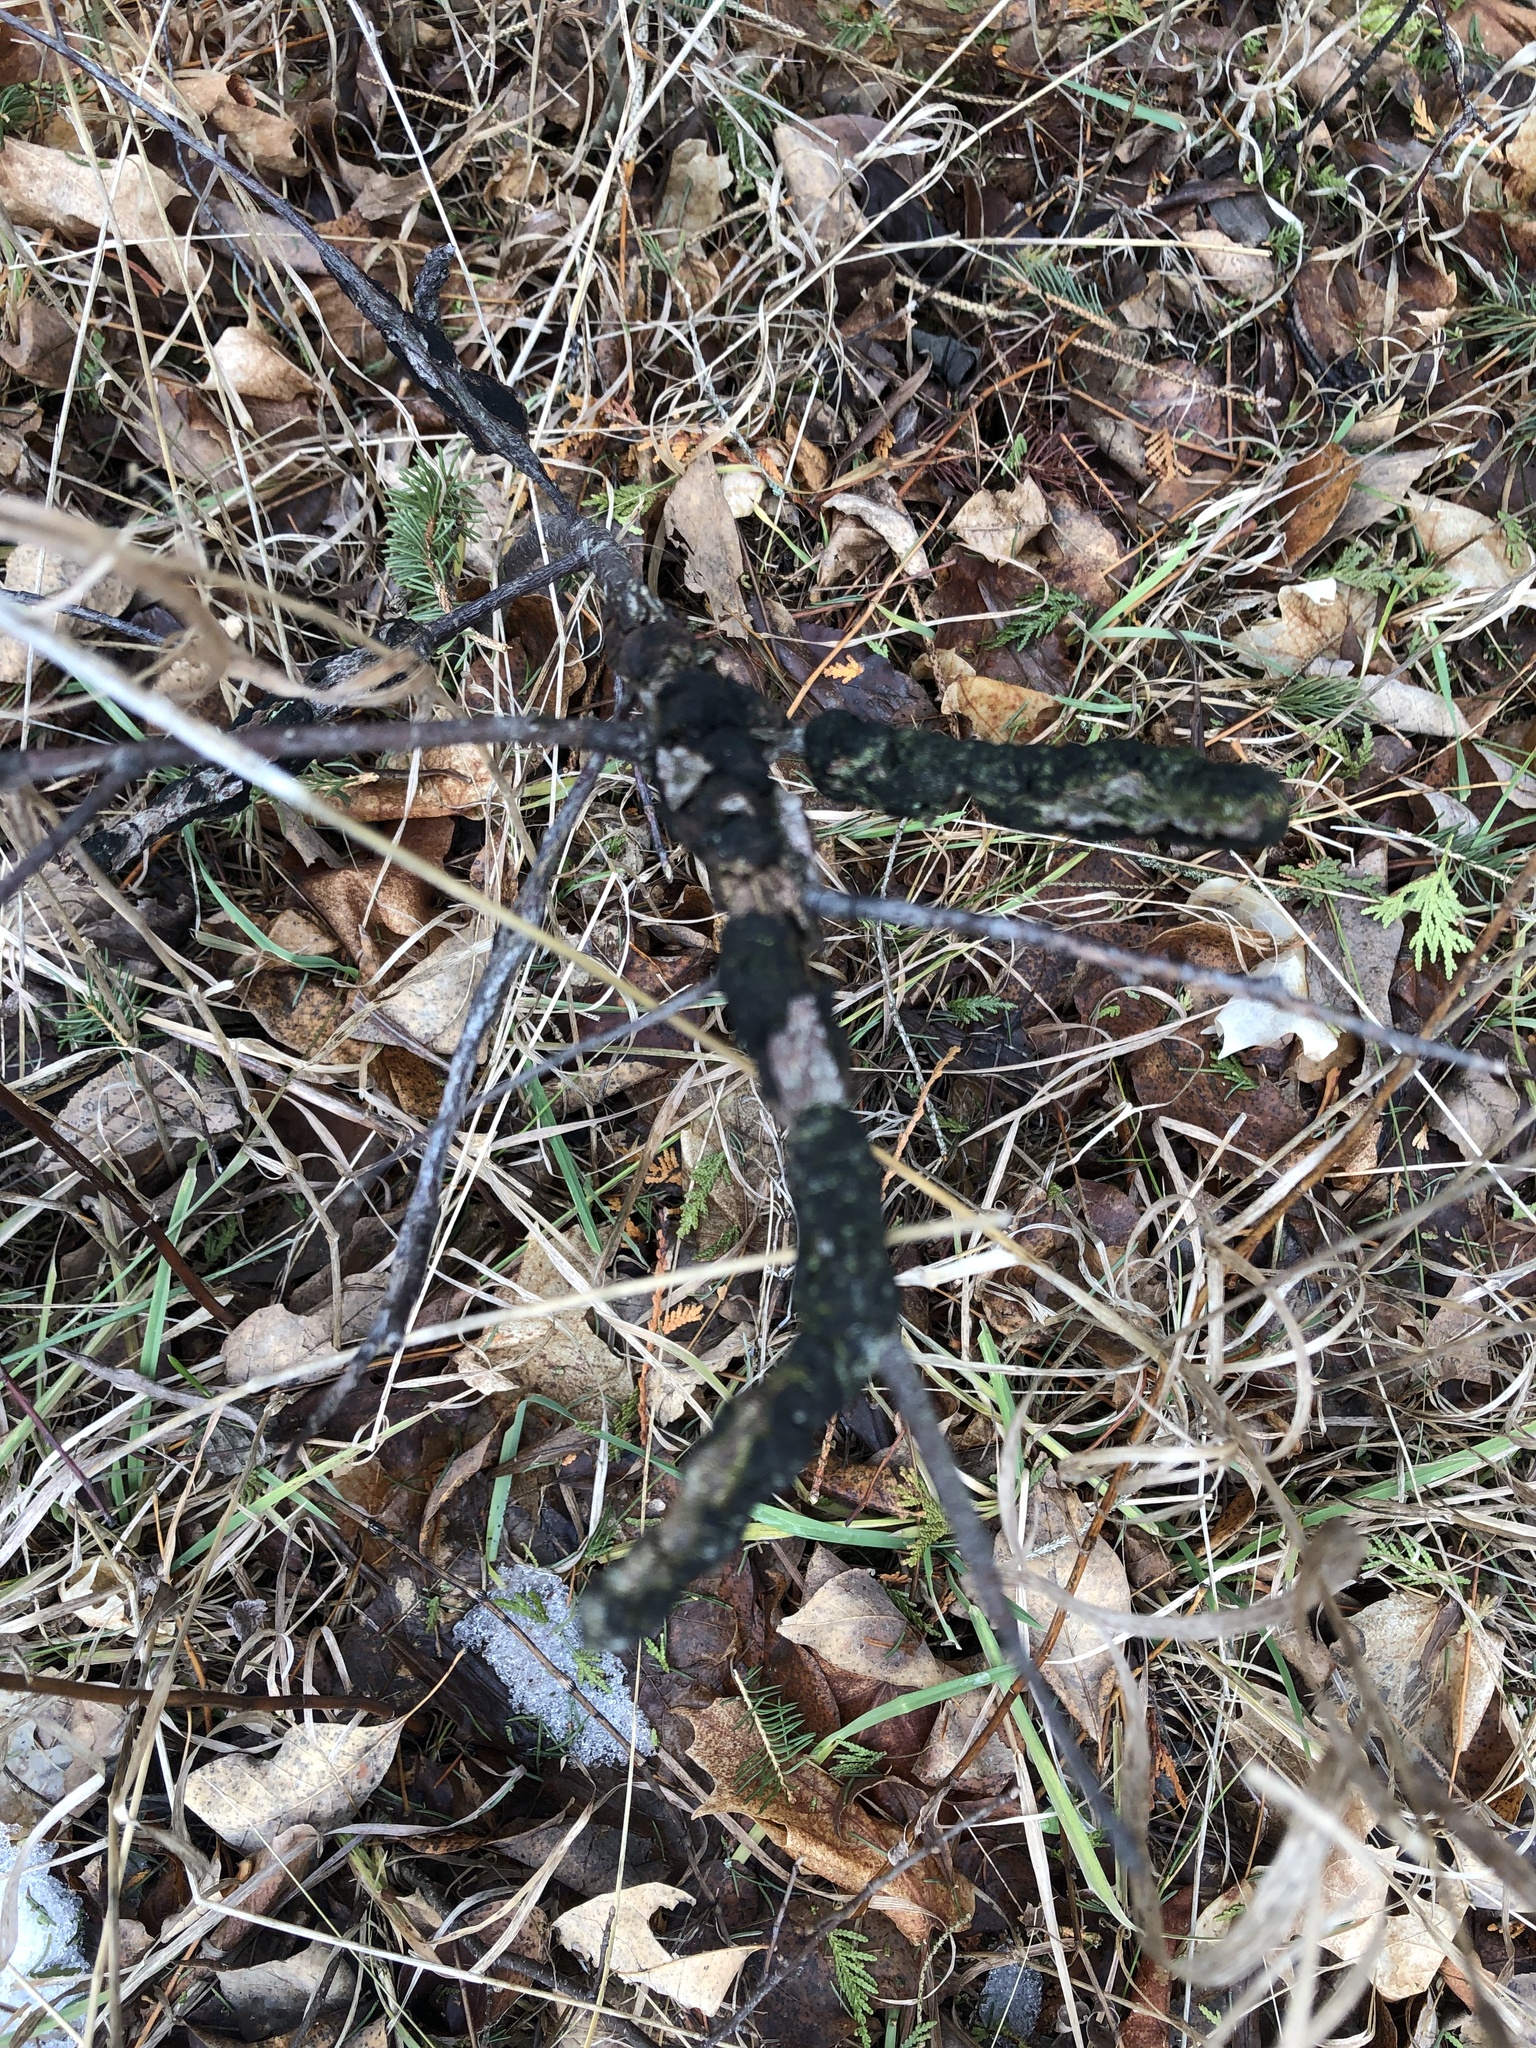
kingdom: Fungi
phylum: Ascomycota
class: Dothideomycetes
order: Venturiales
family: Venturiaceae
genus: Apiosporina
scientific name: Apiosporina morbosa
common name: Black knot
